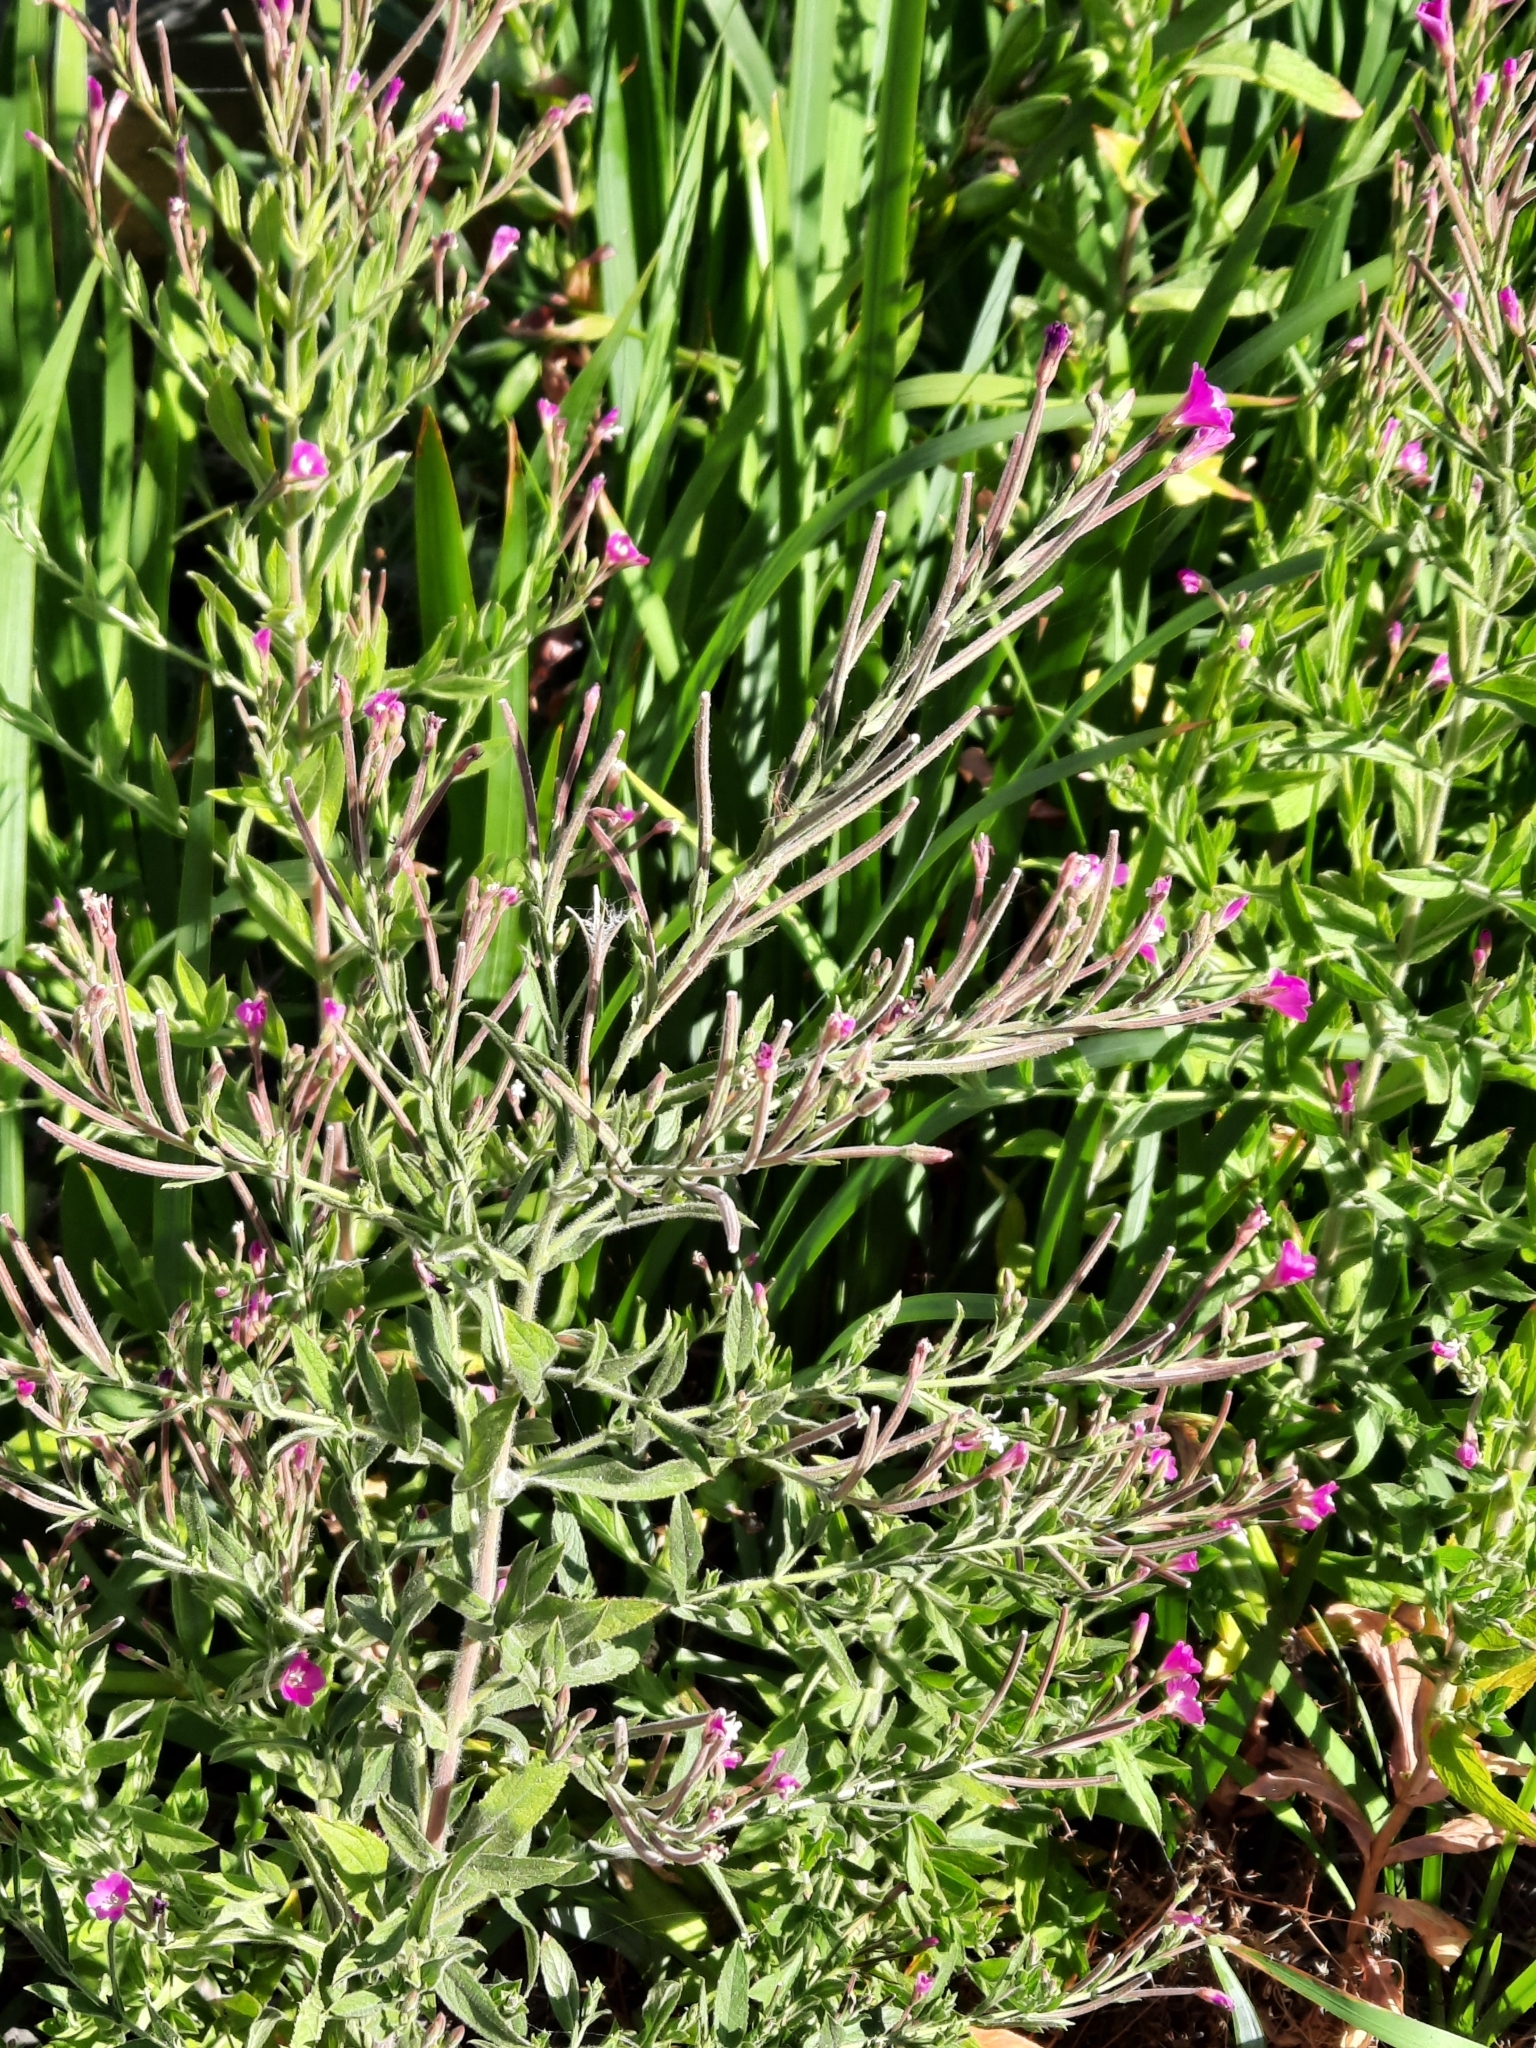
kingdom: Plantae
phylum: Tracheophyta
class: Magnoliopsida
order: Myrtales
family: Onagraceae
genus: Epilobium
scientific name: Epilobium hirsutum
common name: Great willowherb
